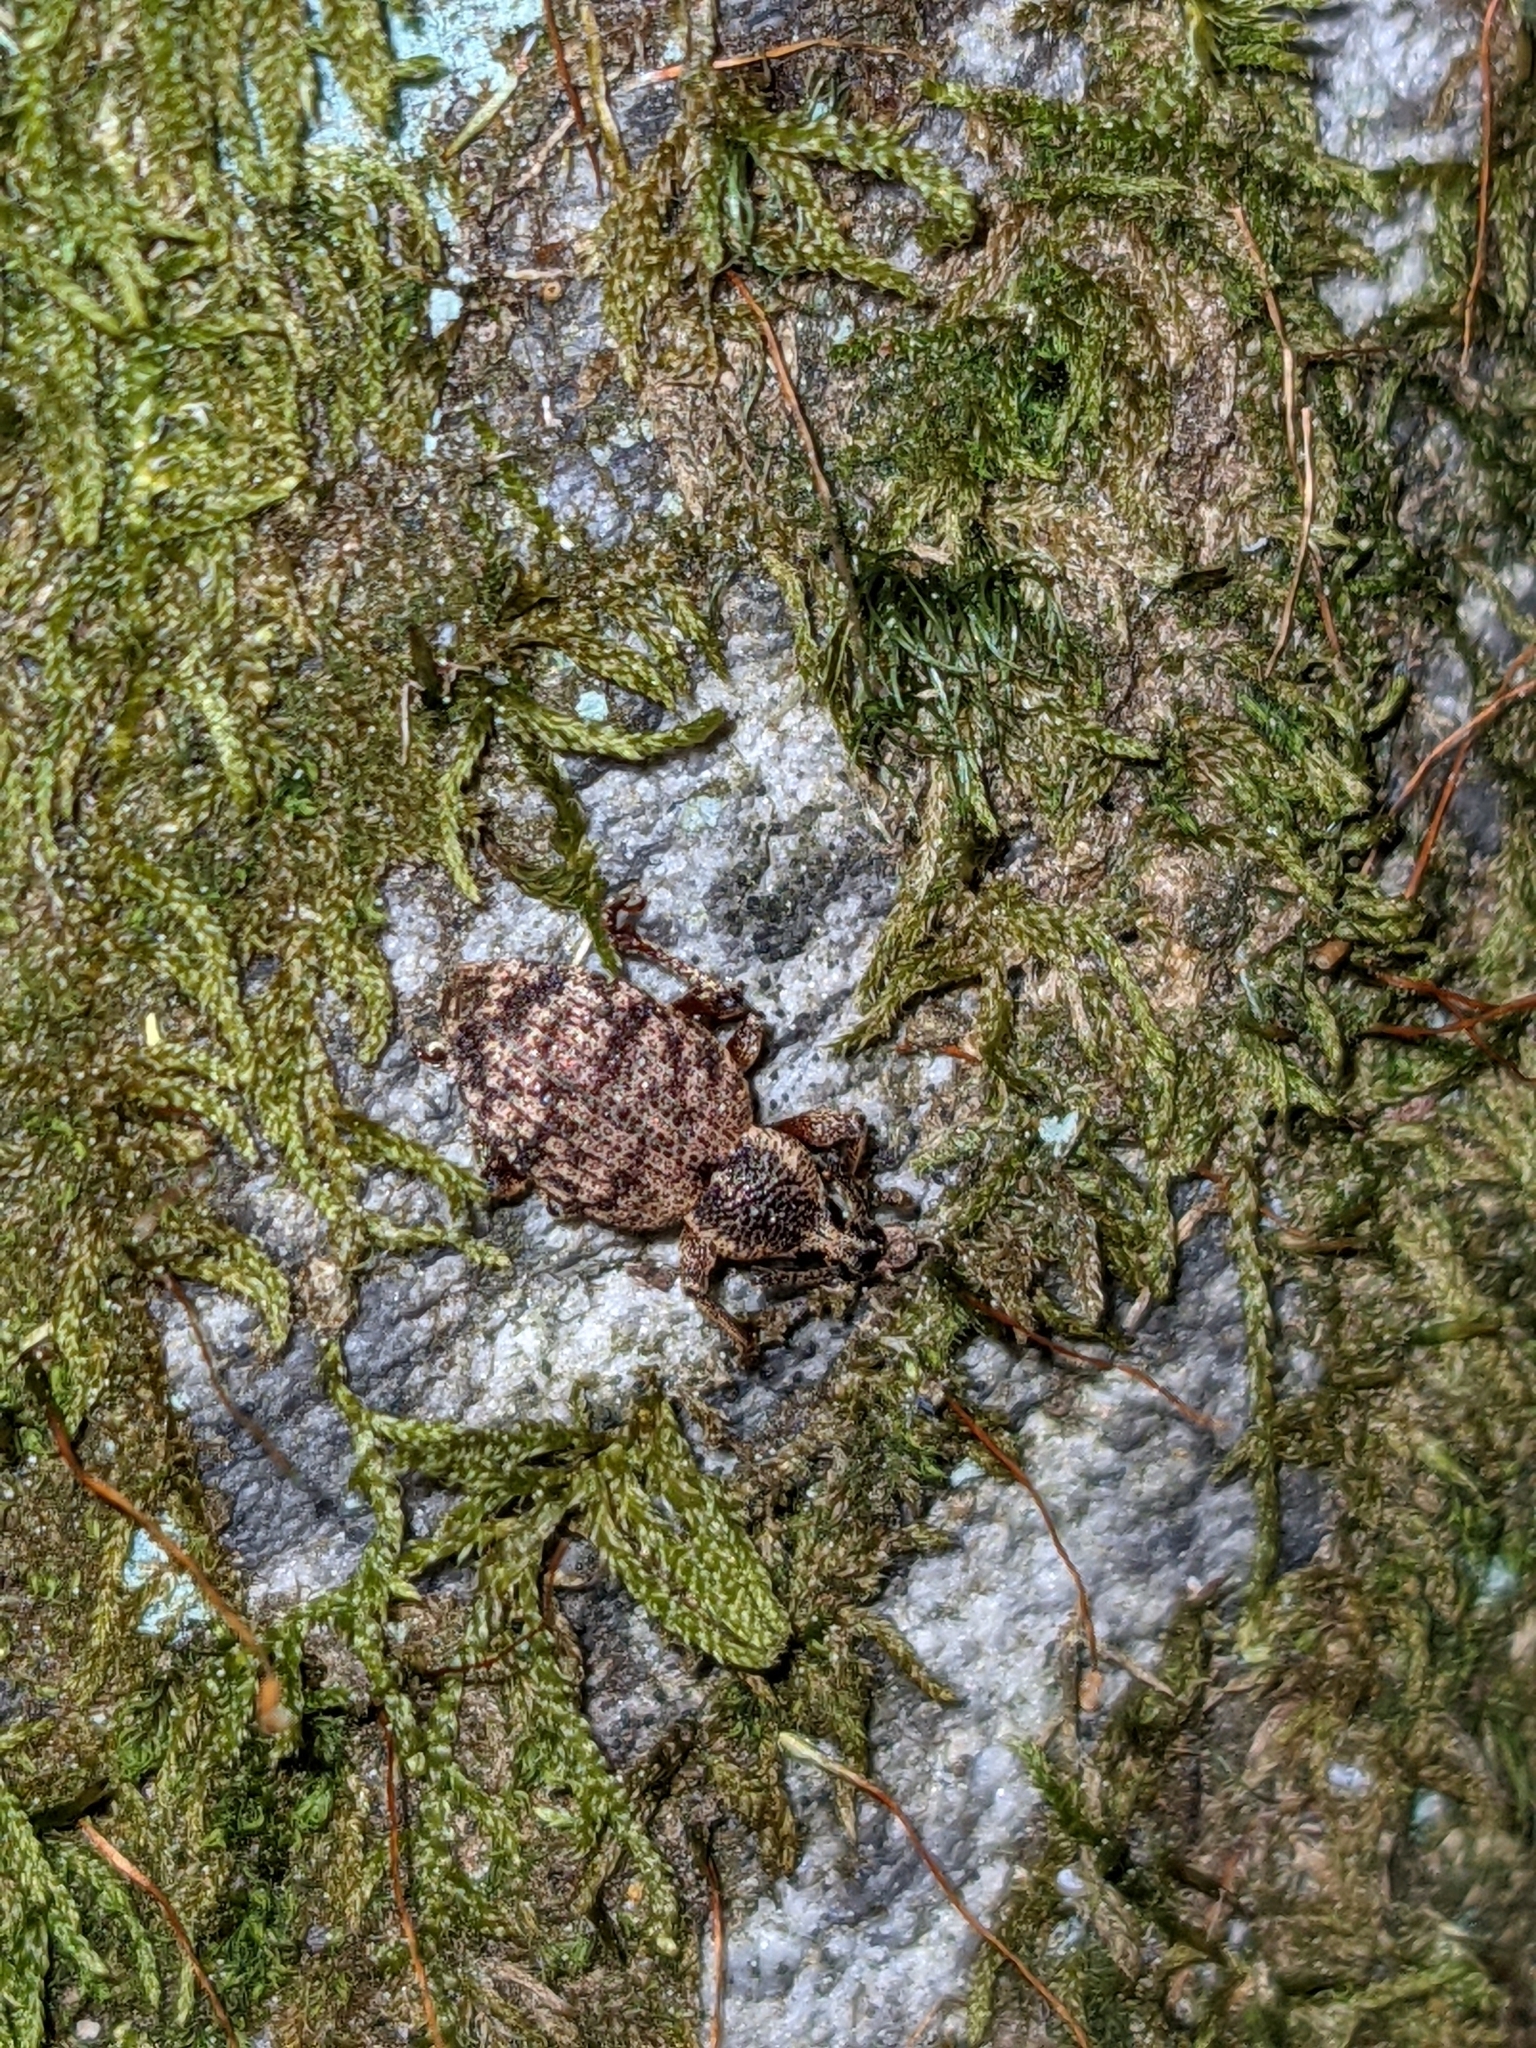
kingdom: Animalia
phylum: Arthropoda
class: Insecta
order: Coleoptera
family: Curculionidae
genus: Otiorhynchus
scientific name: Otiorhynchus singularis
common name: Clay-coloured weevil
